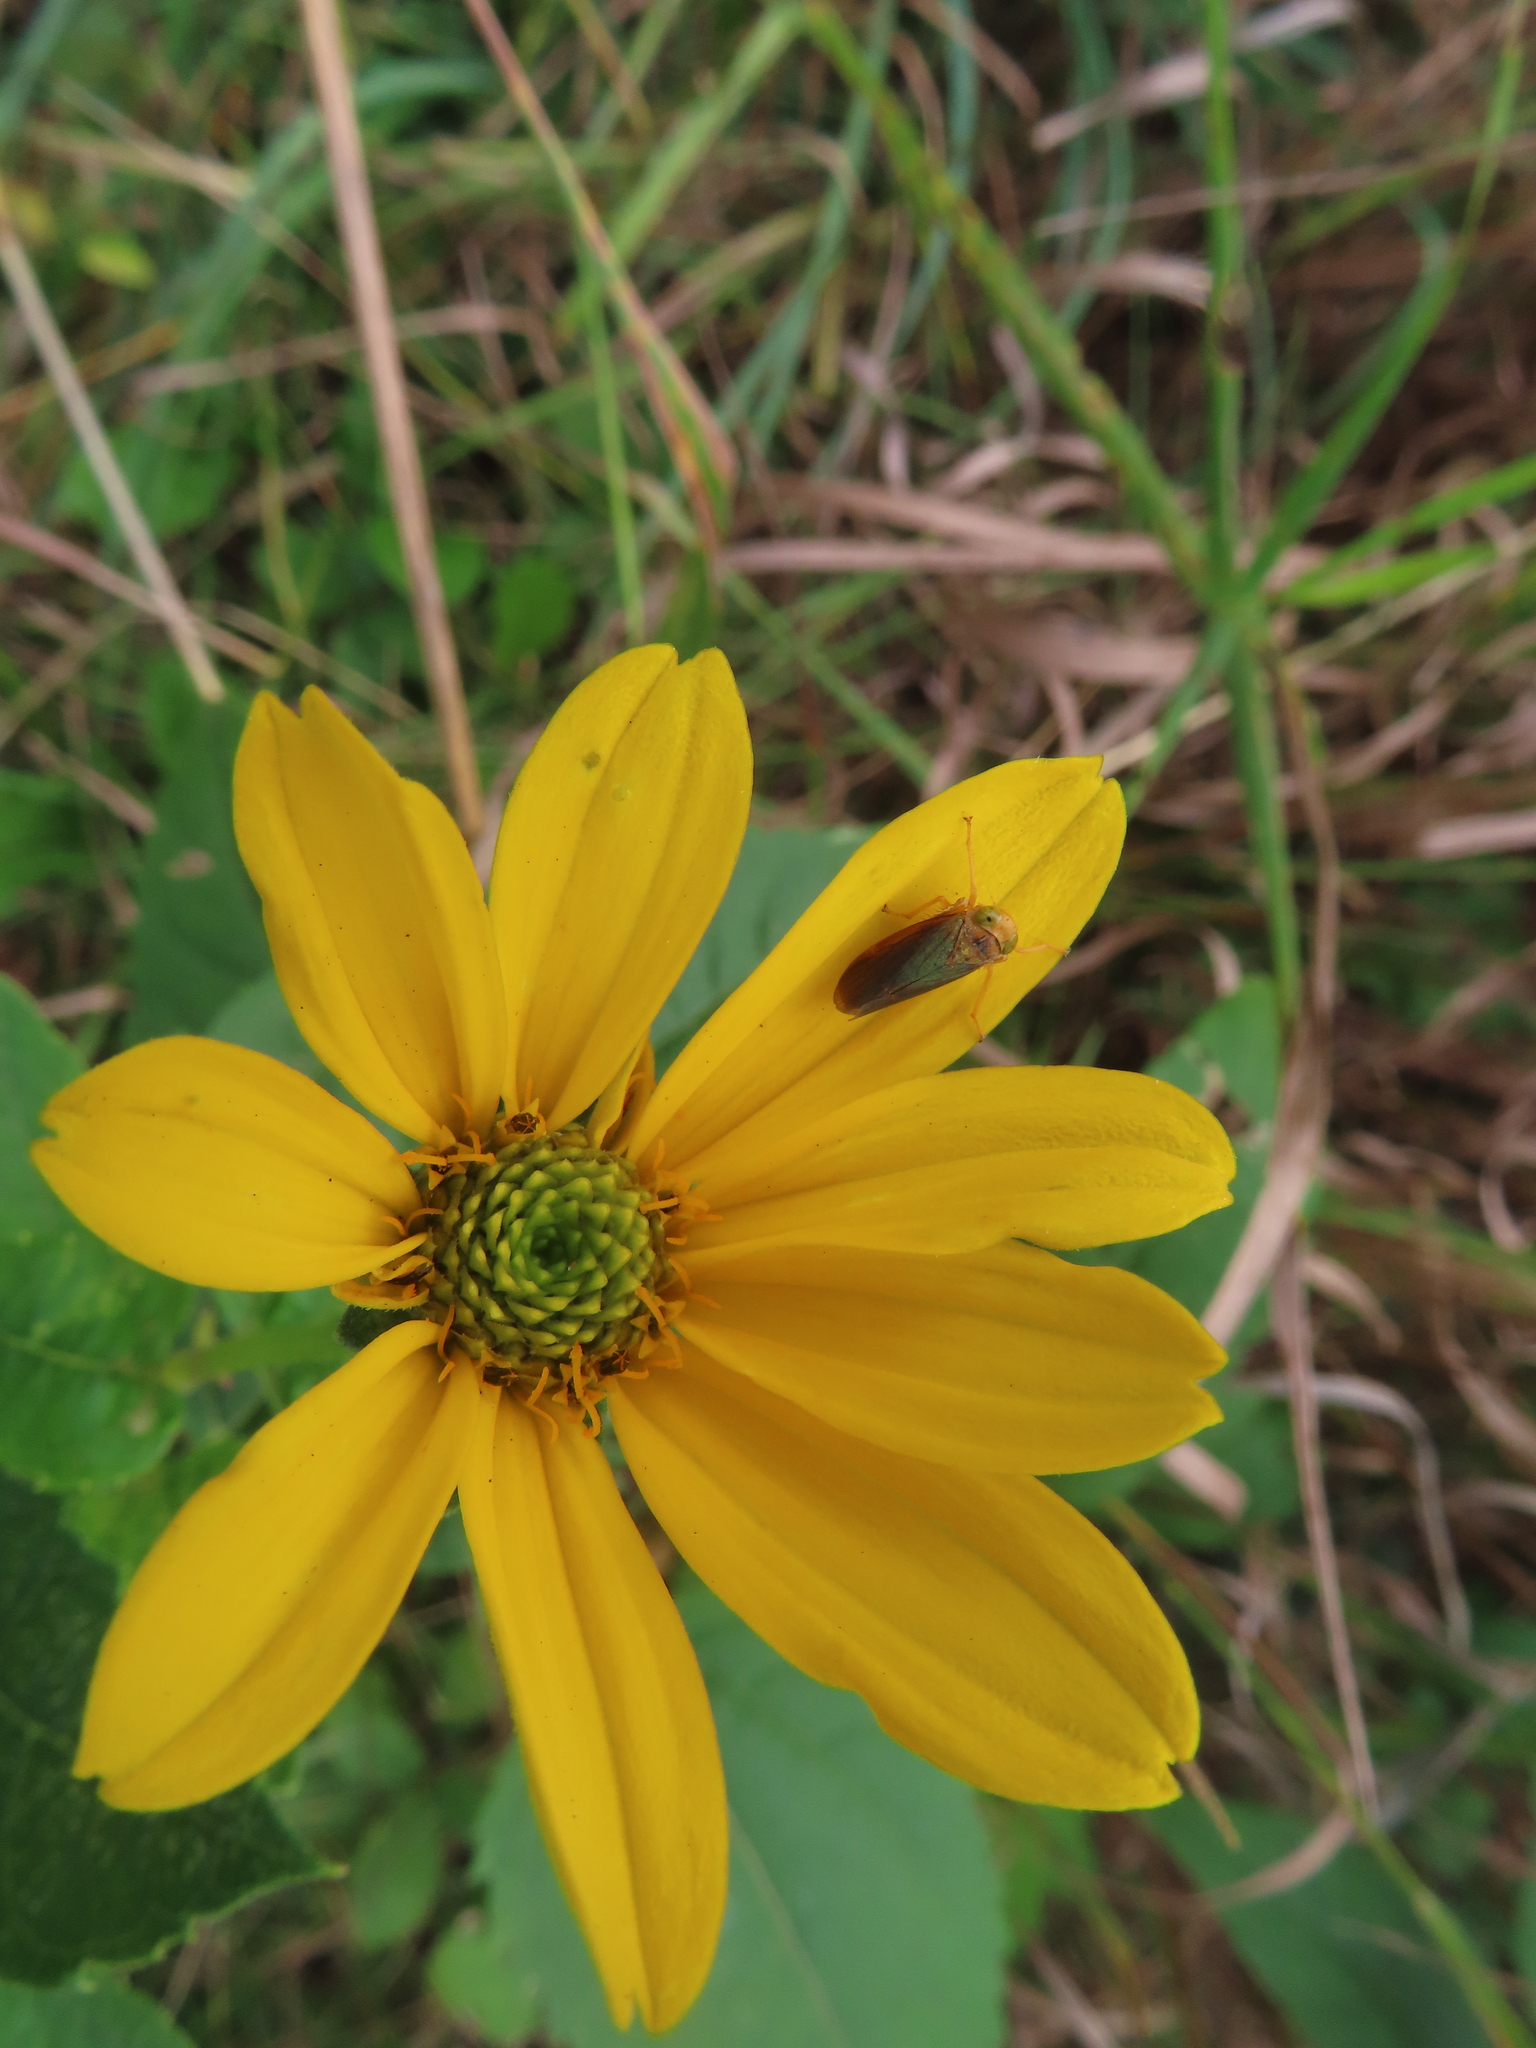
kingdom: Animalia
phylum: Arthropoda
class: Insecta
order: Hemiptera
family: Cicadellidae
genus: Jikradia
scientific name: Jikradia olitoria
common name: Coppery leafhopper
